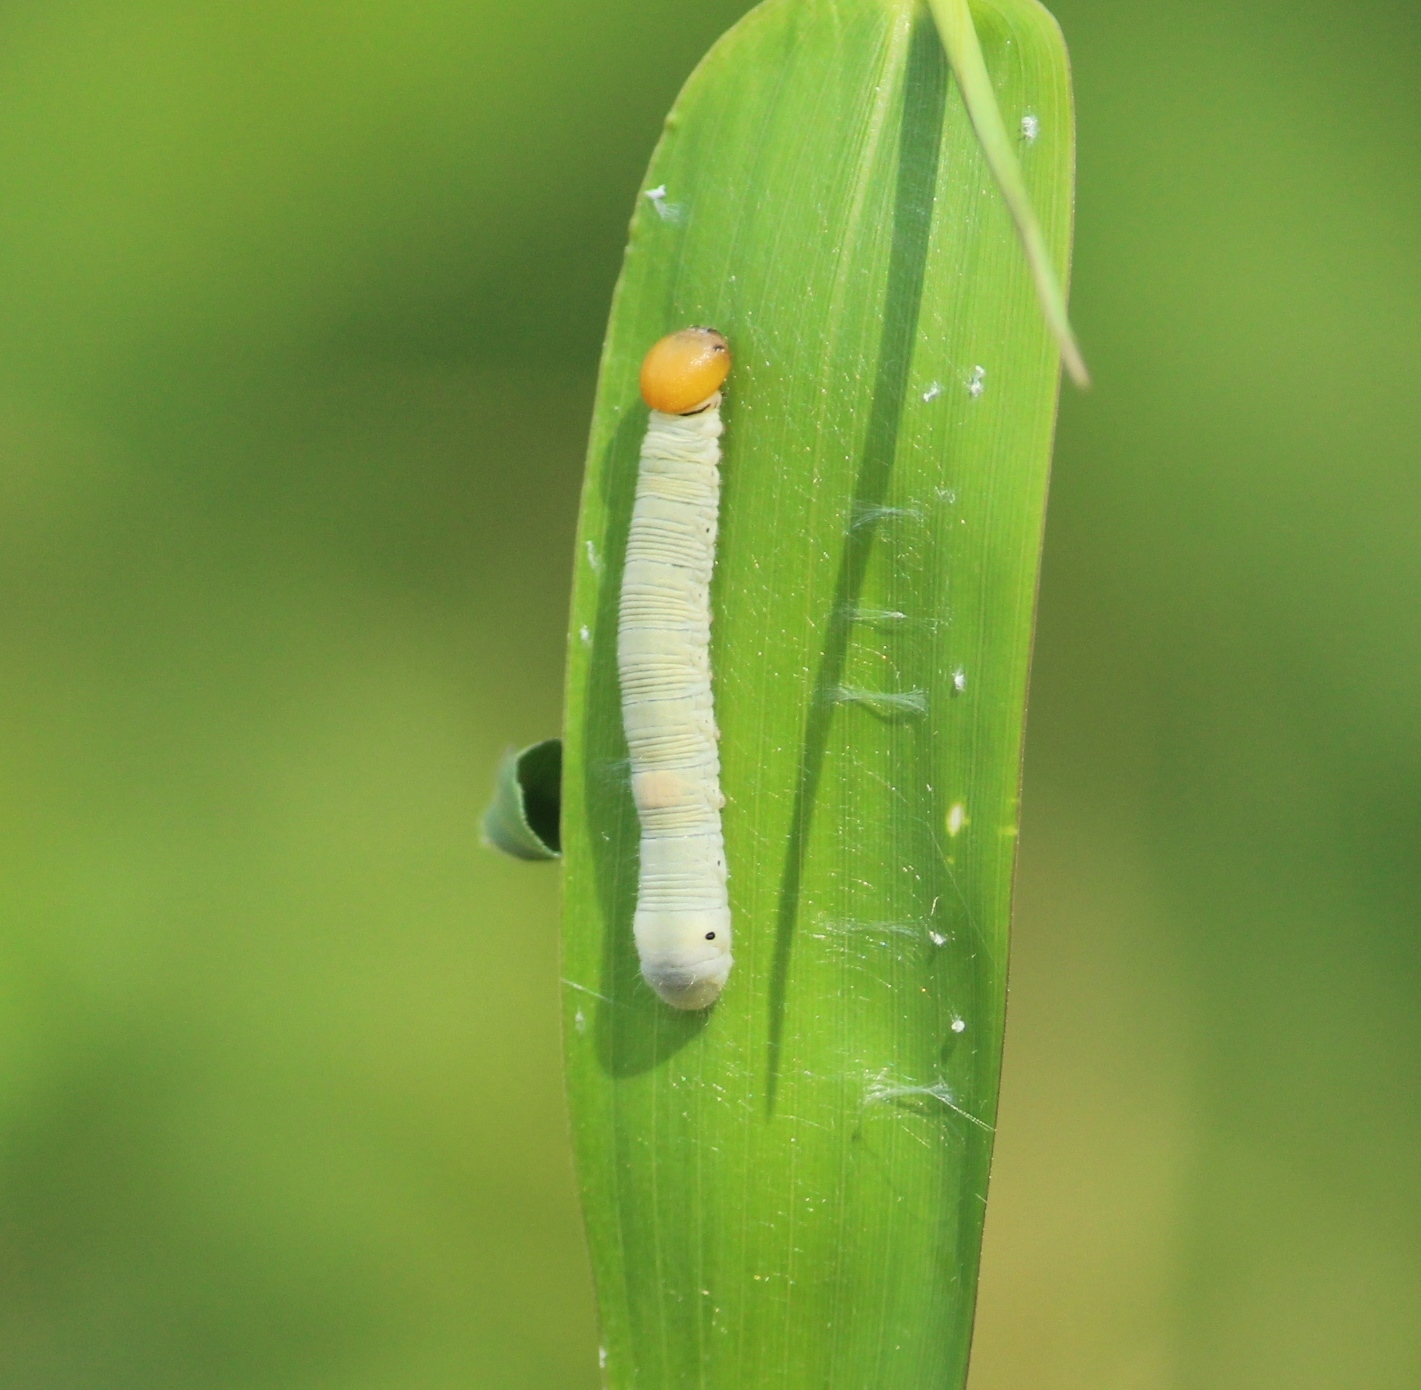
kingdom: Animalia
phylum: Arthropoda
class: Insecta
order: Lepidoptera
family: Hesperiidae
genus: Matapa
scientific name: Matapa aria
